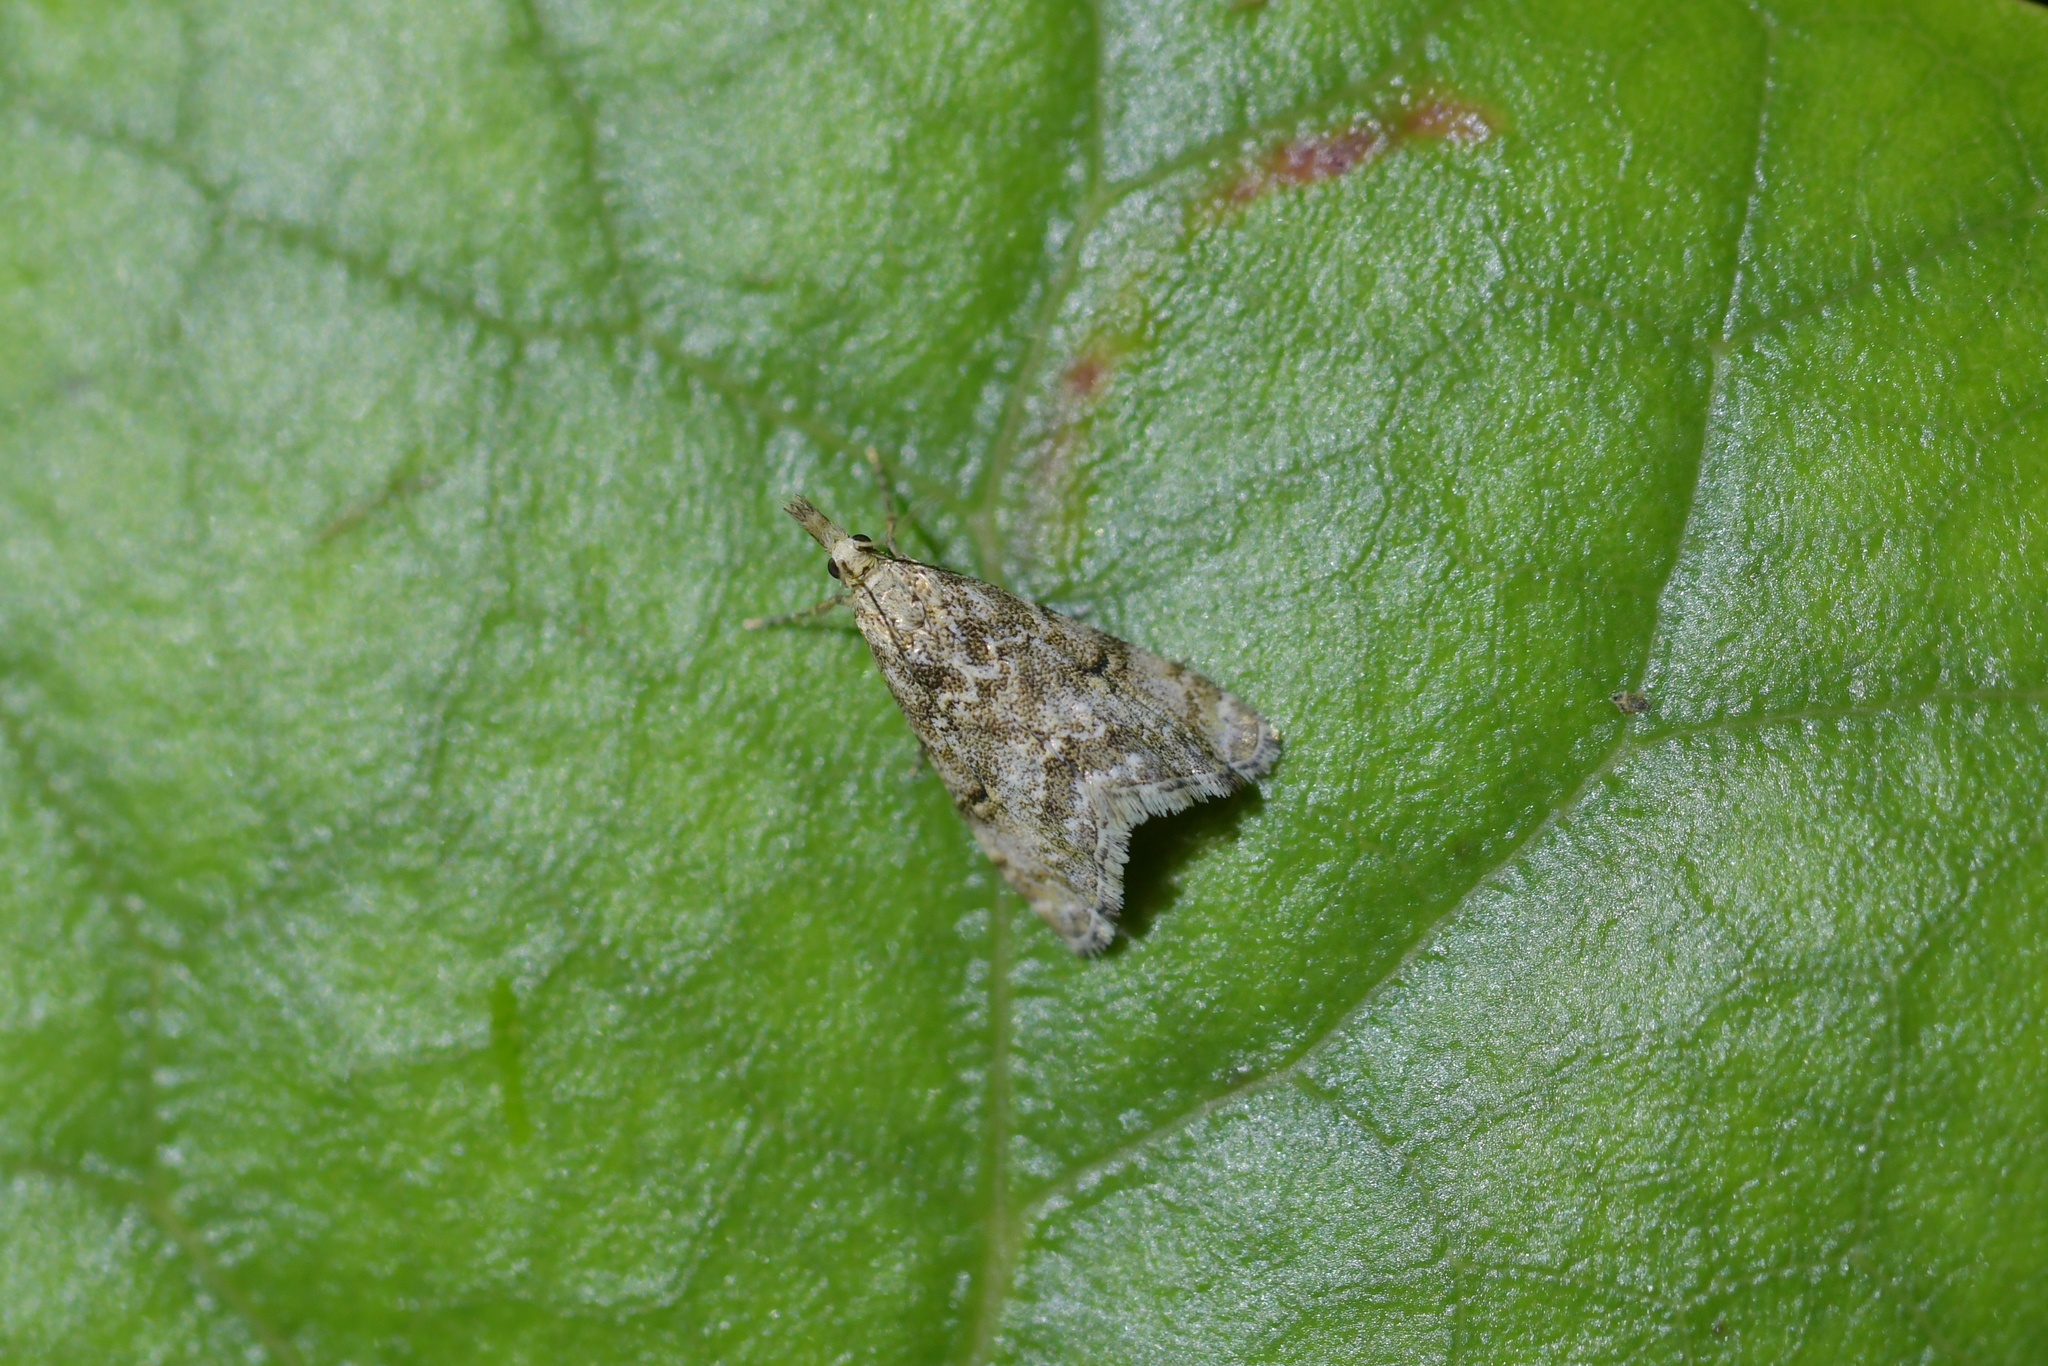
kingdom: Animalia
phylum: Arthropoda
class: Insecta
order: Lepidoptera
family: Crambidae
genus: Glaucocharis
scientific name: Glaucocharis elaina
